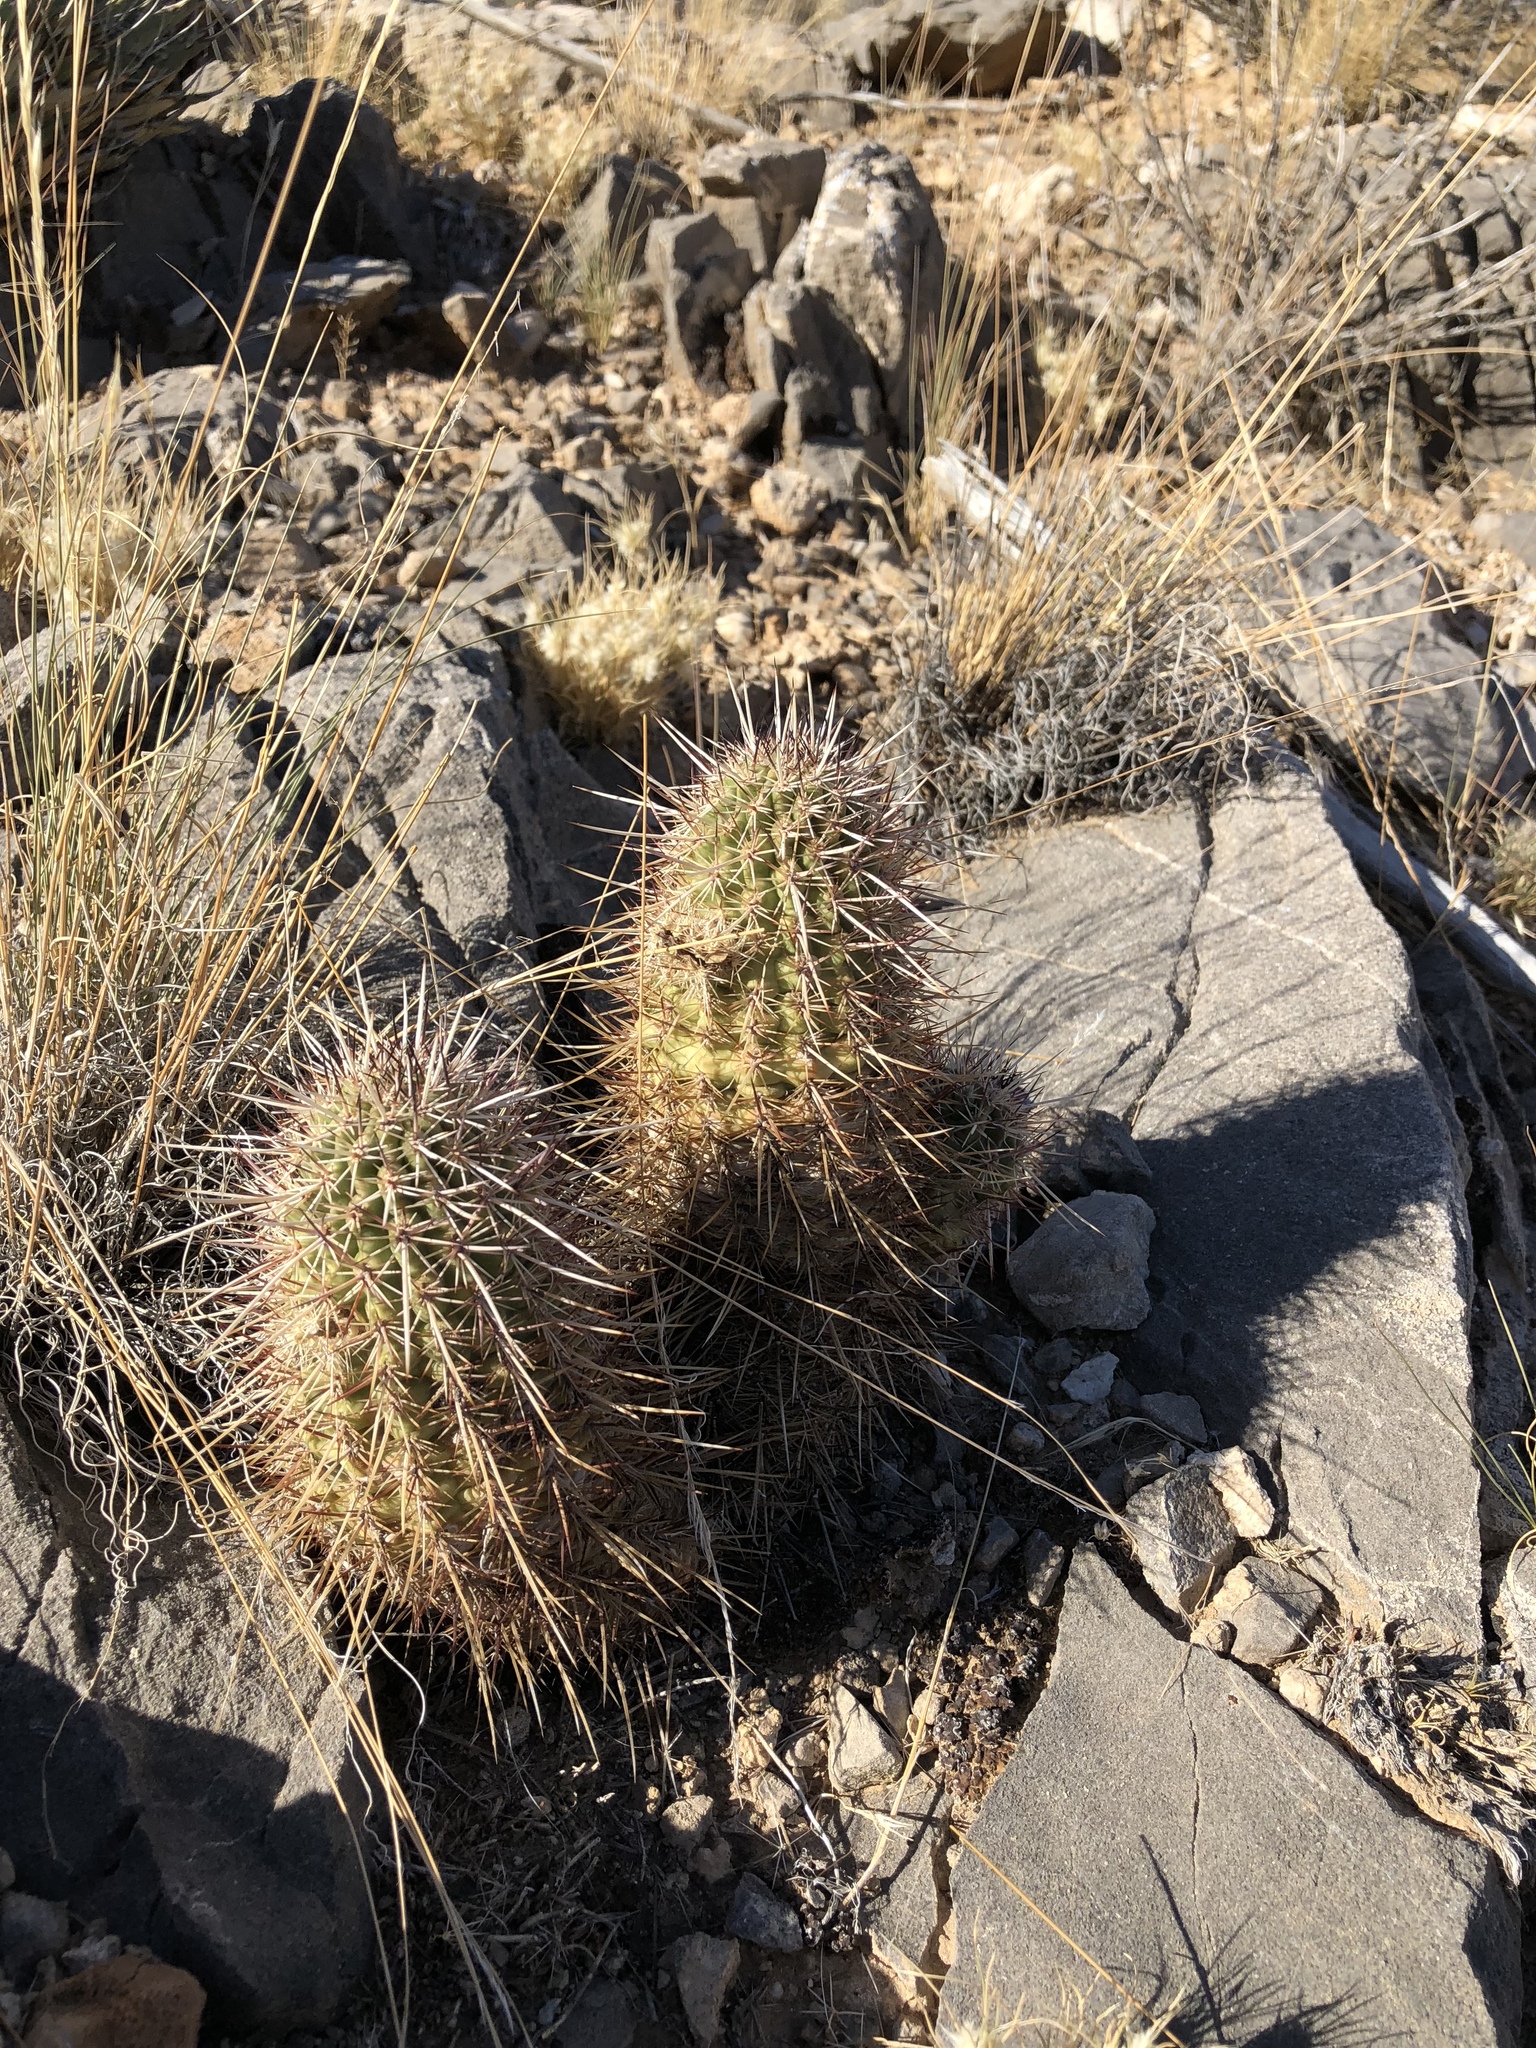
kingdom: Plantae
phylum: Tracheophyta
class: Magnoliopsida
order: Caryophyllales
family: Cactaceae
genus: Echinocereus
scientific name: Echinocereus engelmannii
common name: Engelmann's hedgehog cactus
